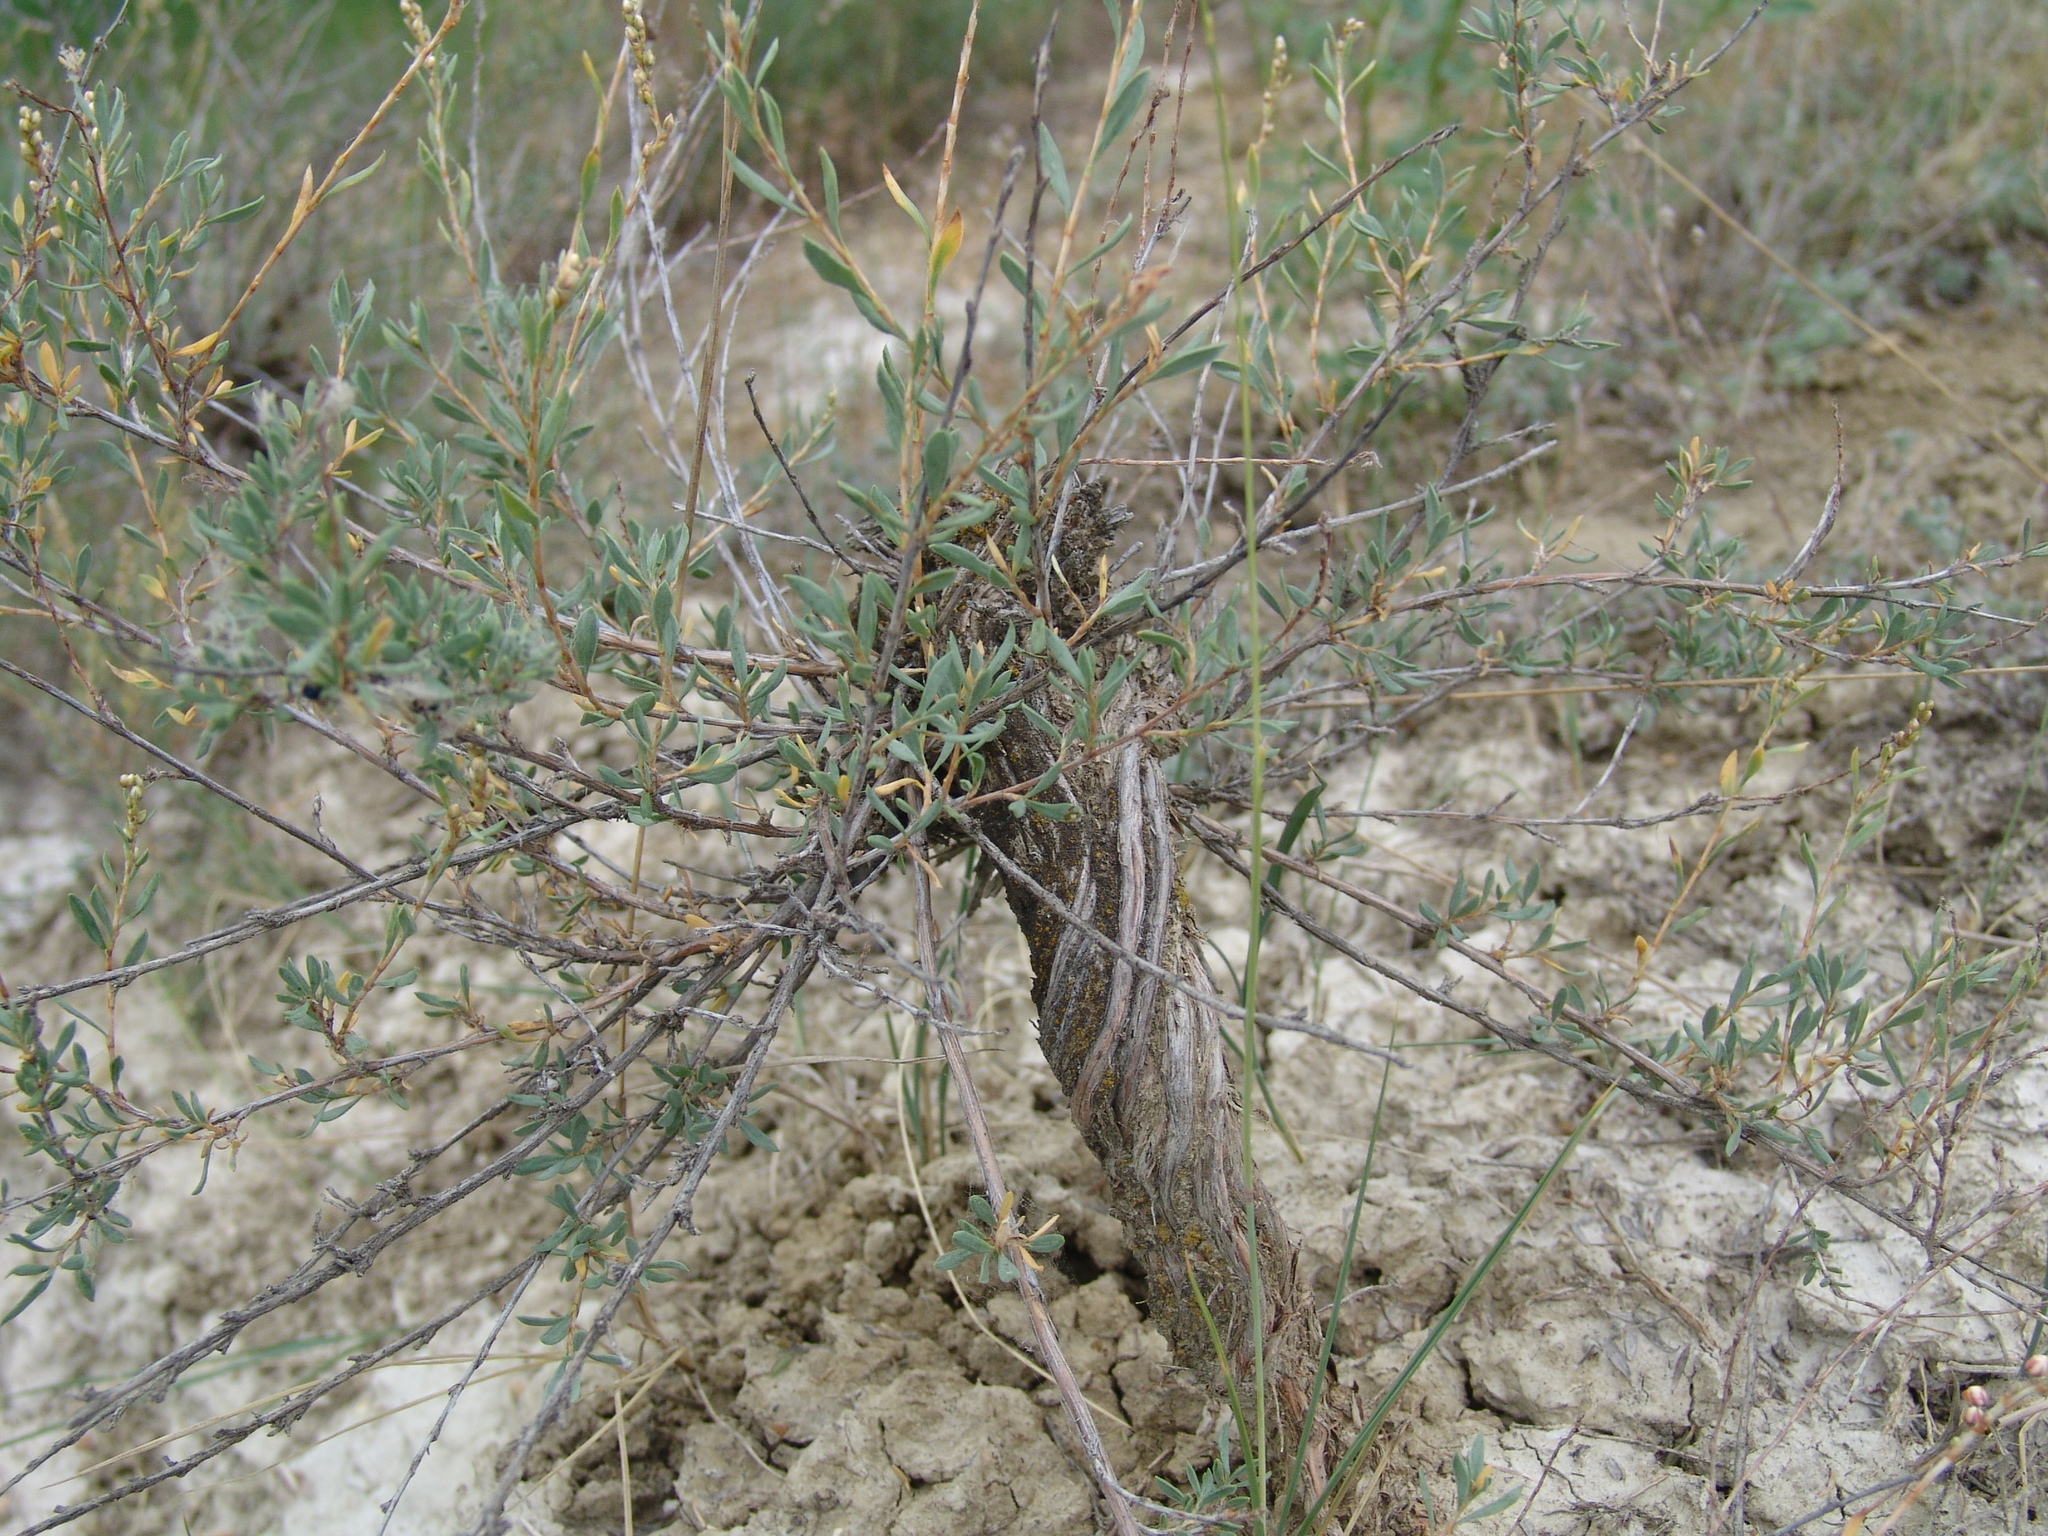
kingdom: Plantae
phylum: Tracheophyta
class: Magnoliopsida
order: Caryophyllales
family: Polygonaceae
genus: Atraphaxis
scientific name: Atraphaxis frutescens
